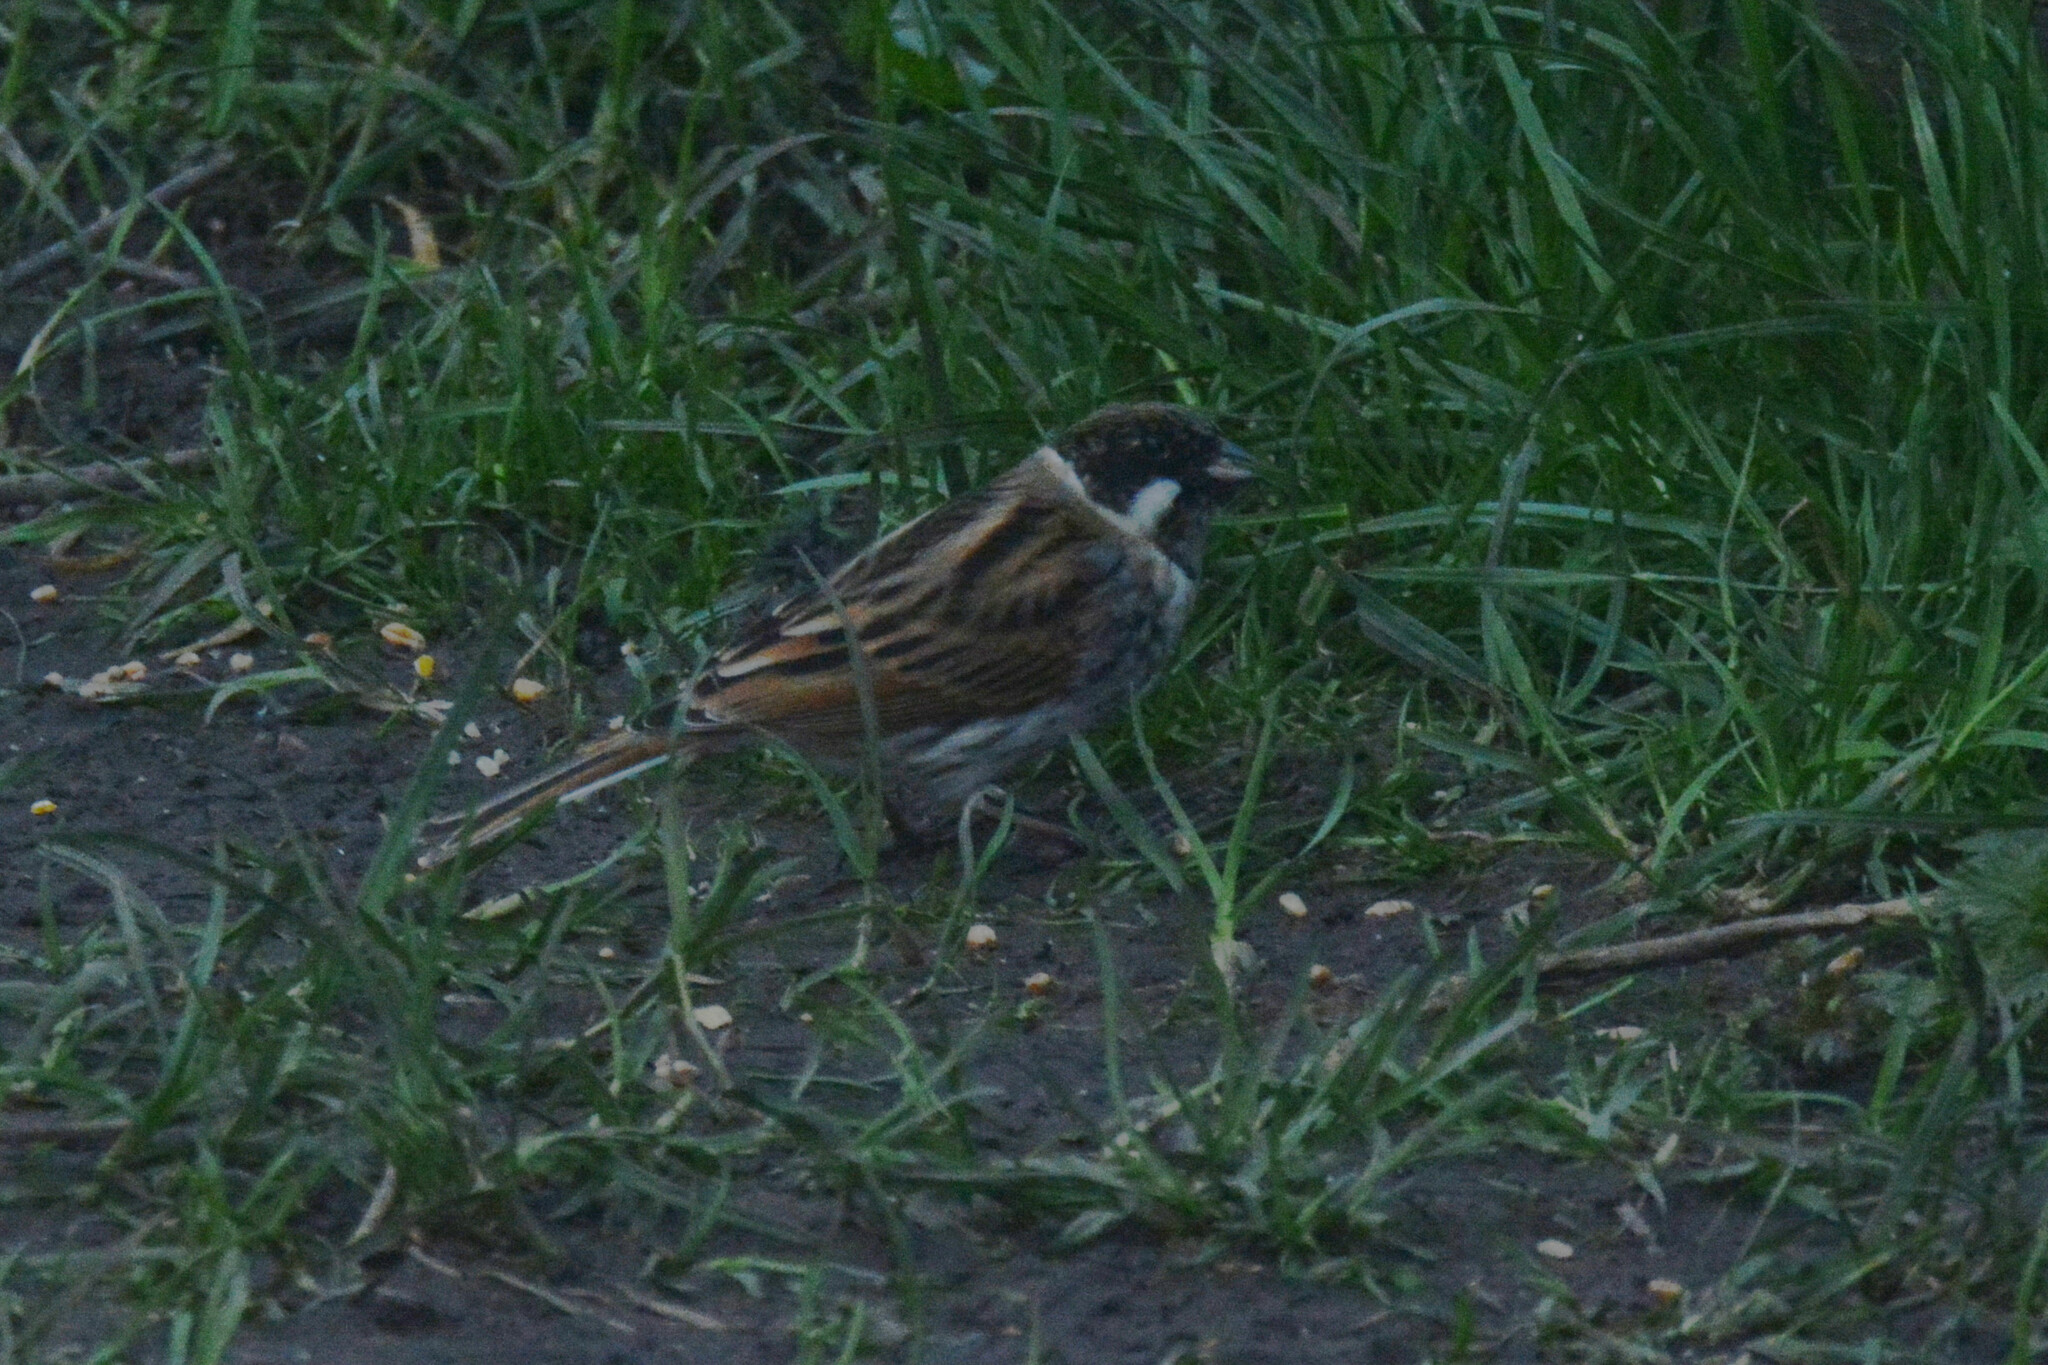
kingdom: Animalia
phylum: Chordata
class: Aves
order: Passeriformes
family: Emberizidae
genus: Emberiza
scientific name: Emberiza schoeniclus
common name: Reed bunting
